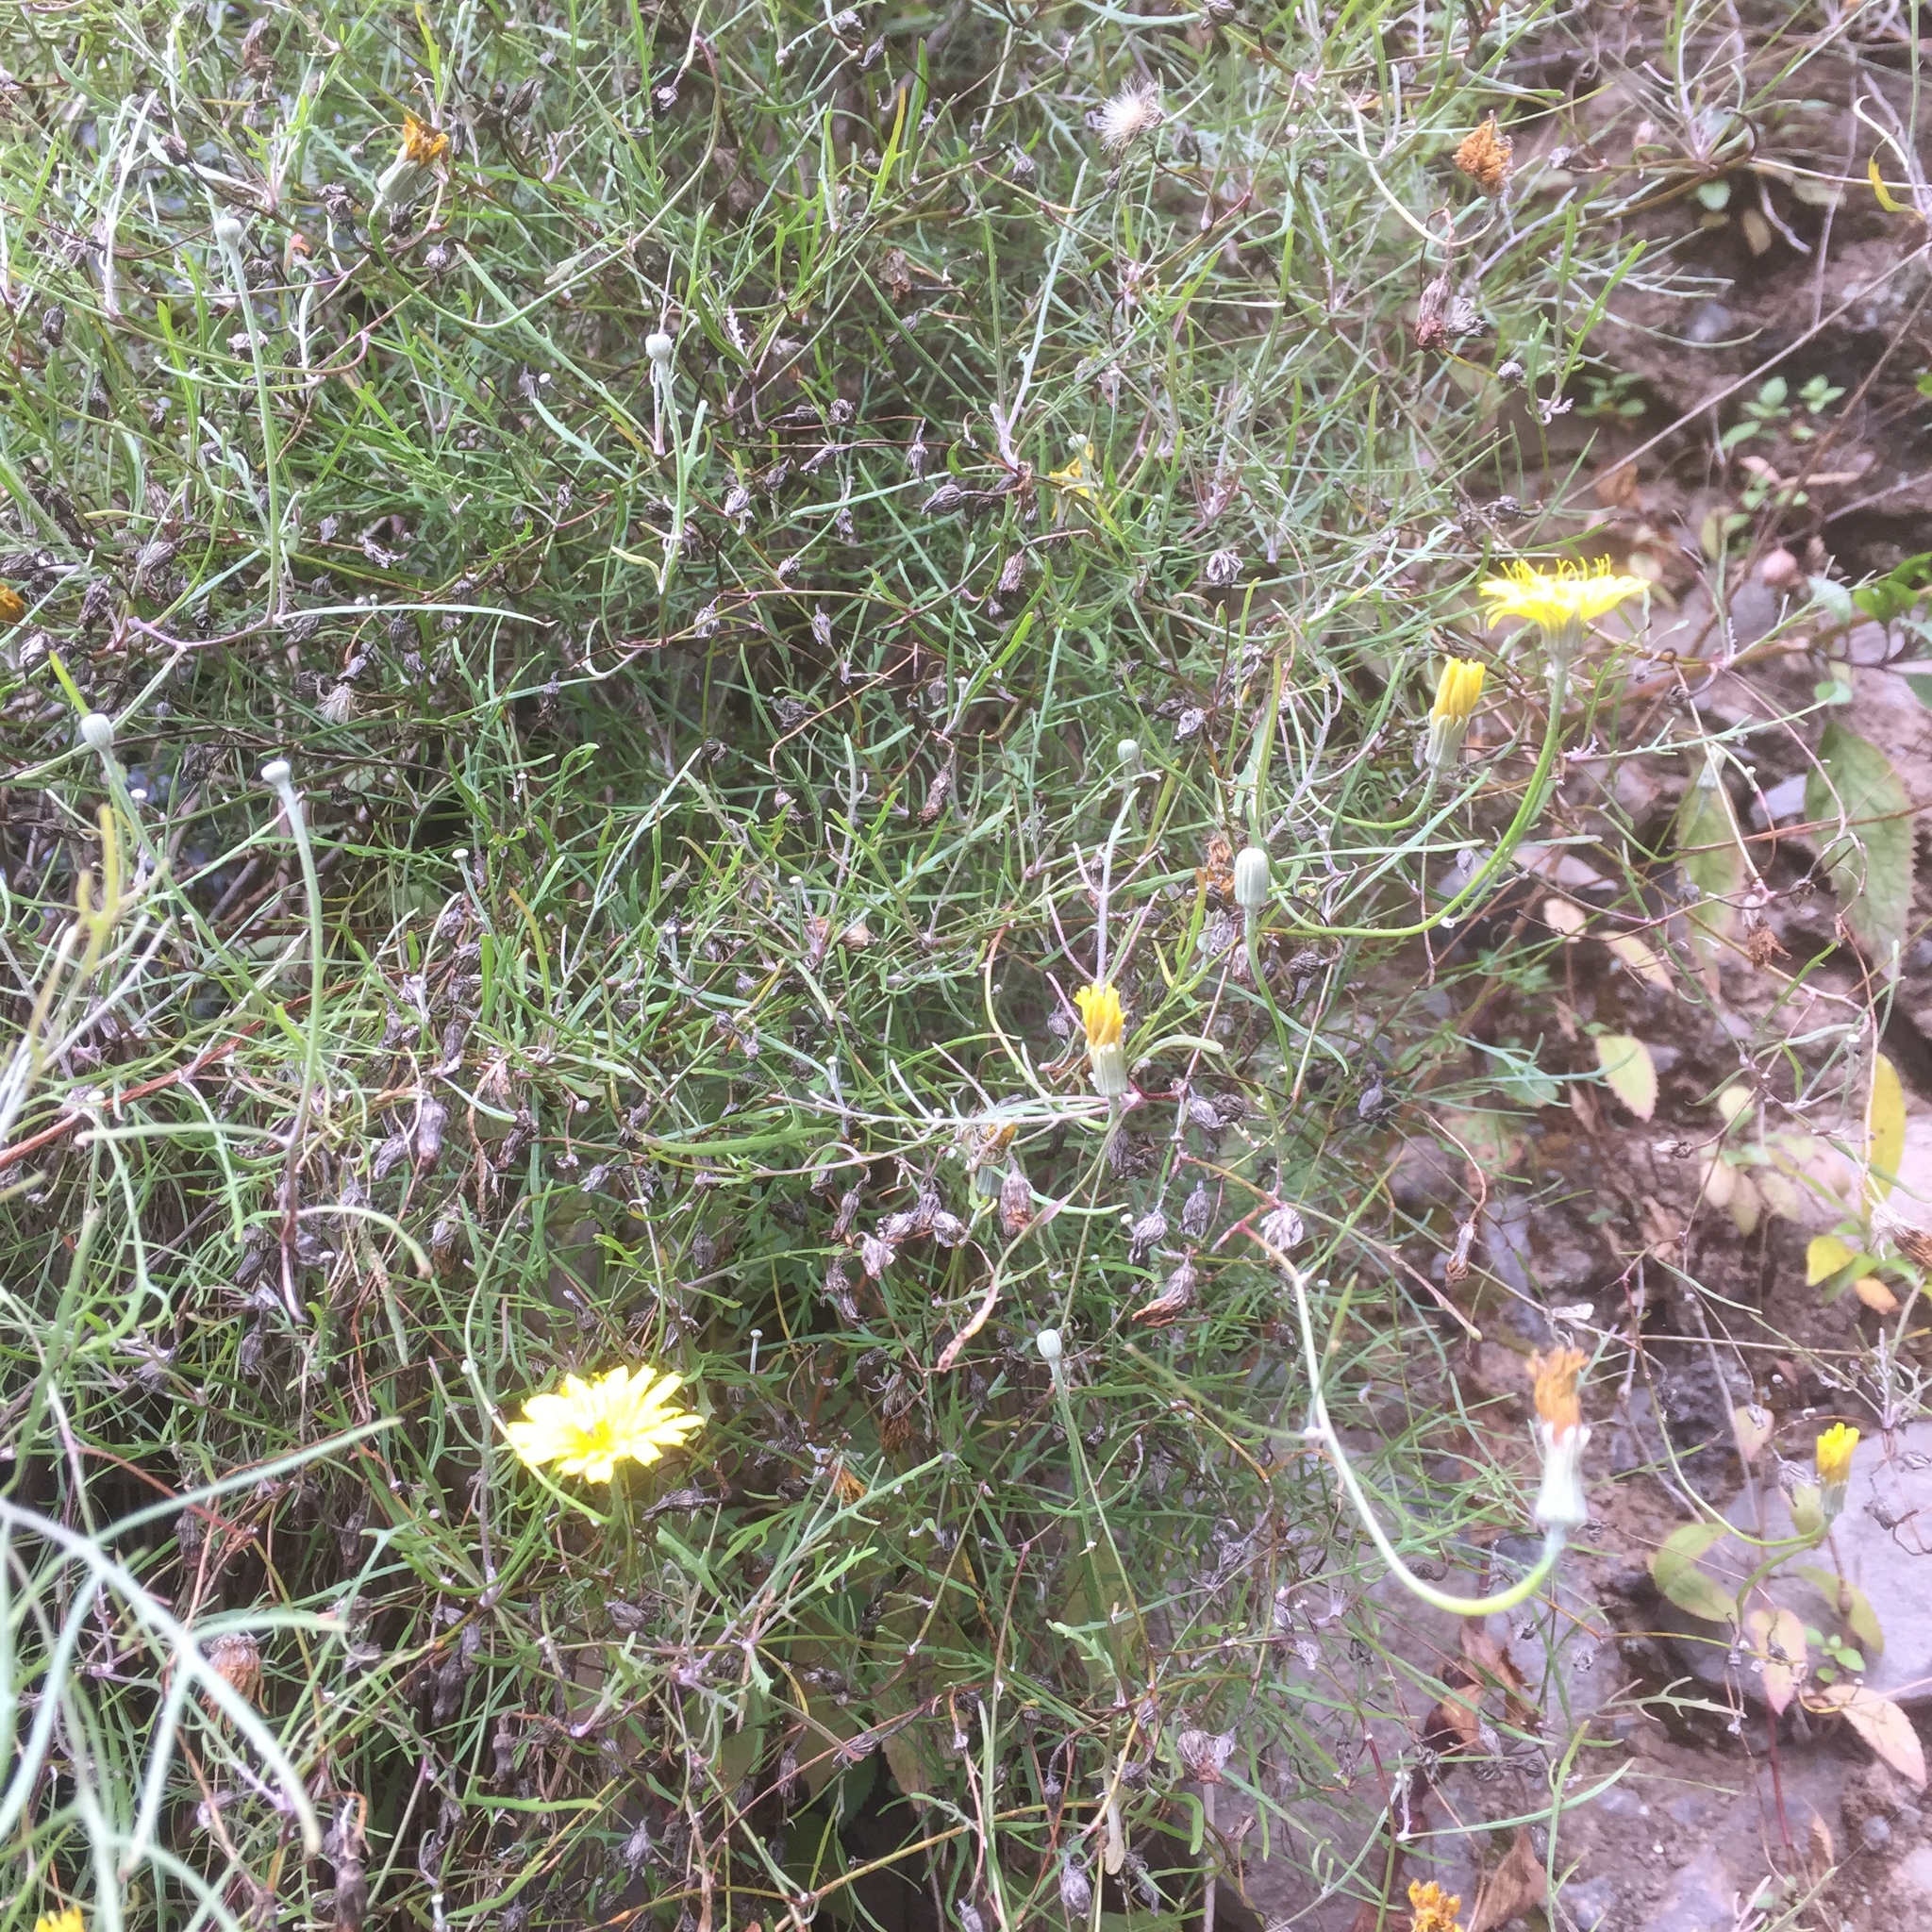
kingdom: Plantae
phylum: Tracheophyta
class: Magnoliopsida
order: Asterales
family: Asteraceae
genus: Tolpis
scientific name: Tolpis succulenta
